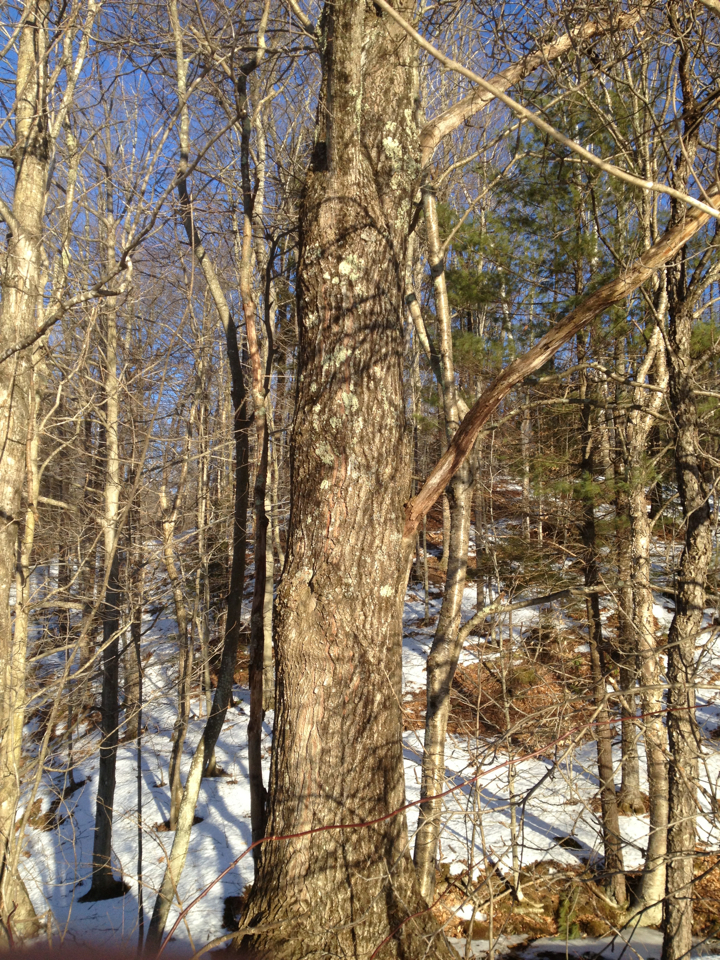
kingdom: Plantae
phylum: Tracheophyta
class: Magnoliopsida
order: Fagales
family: Fagaceae
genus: Quercus
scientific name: Quercus rubra
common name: Red oak
